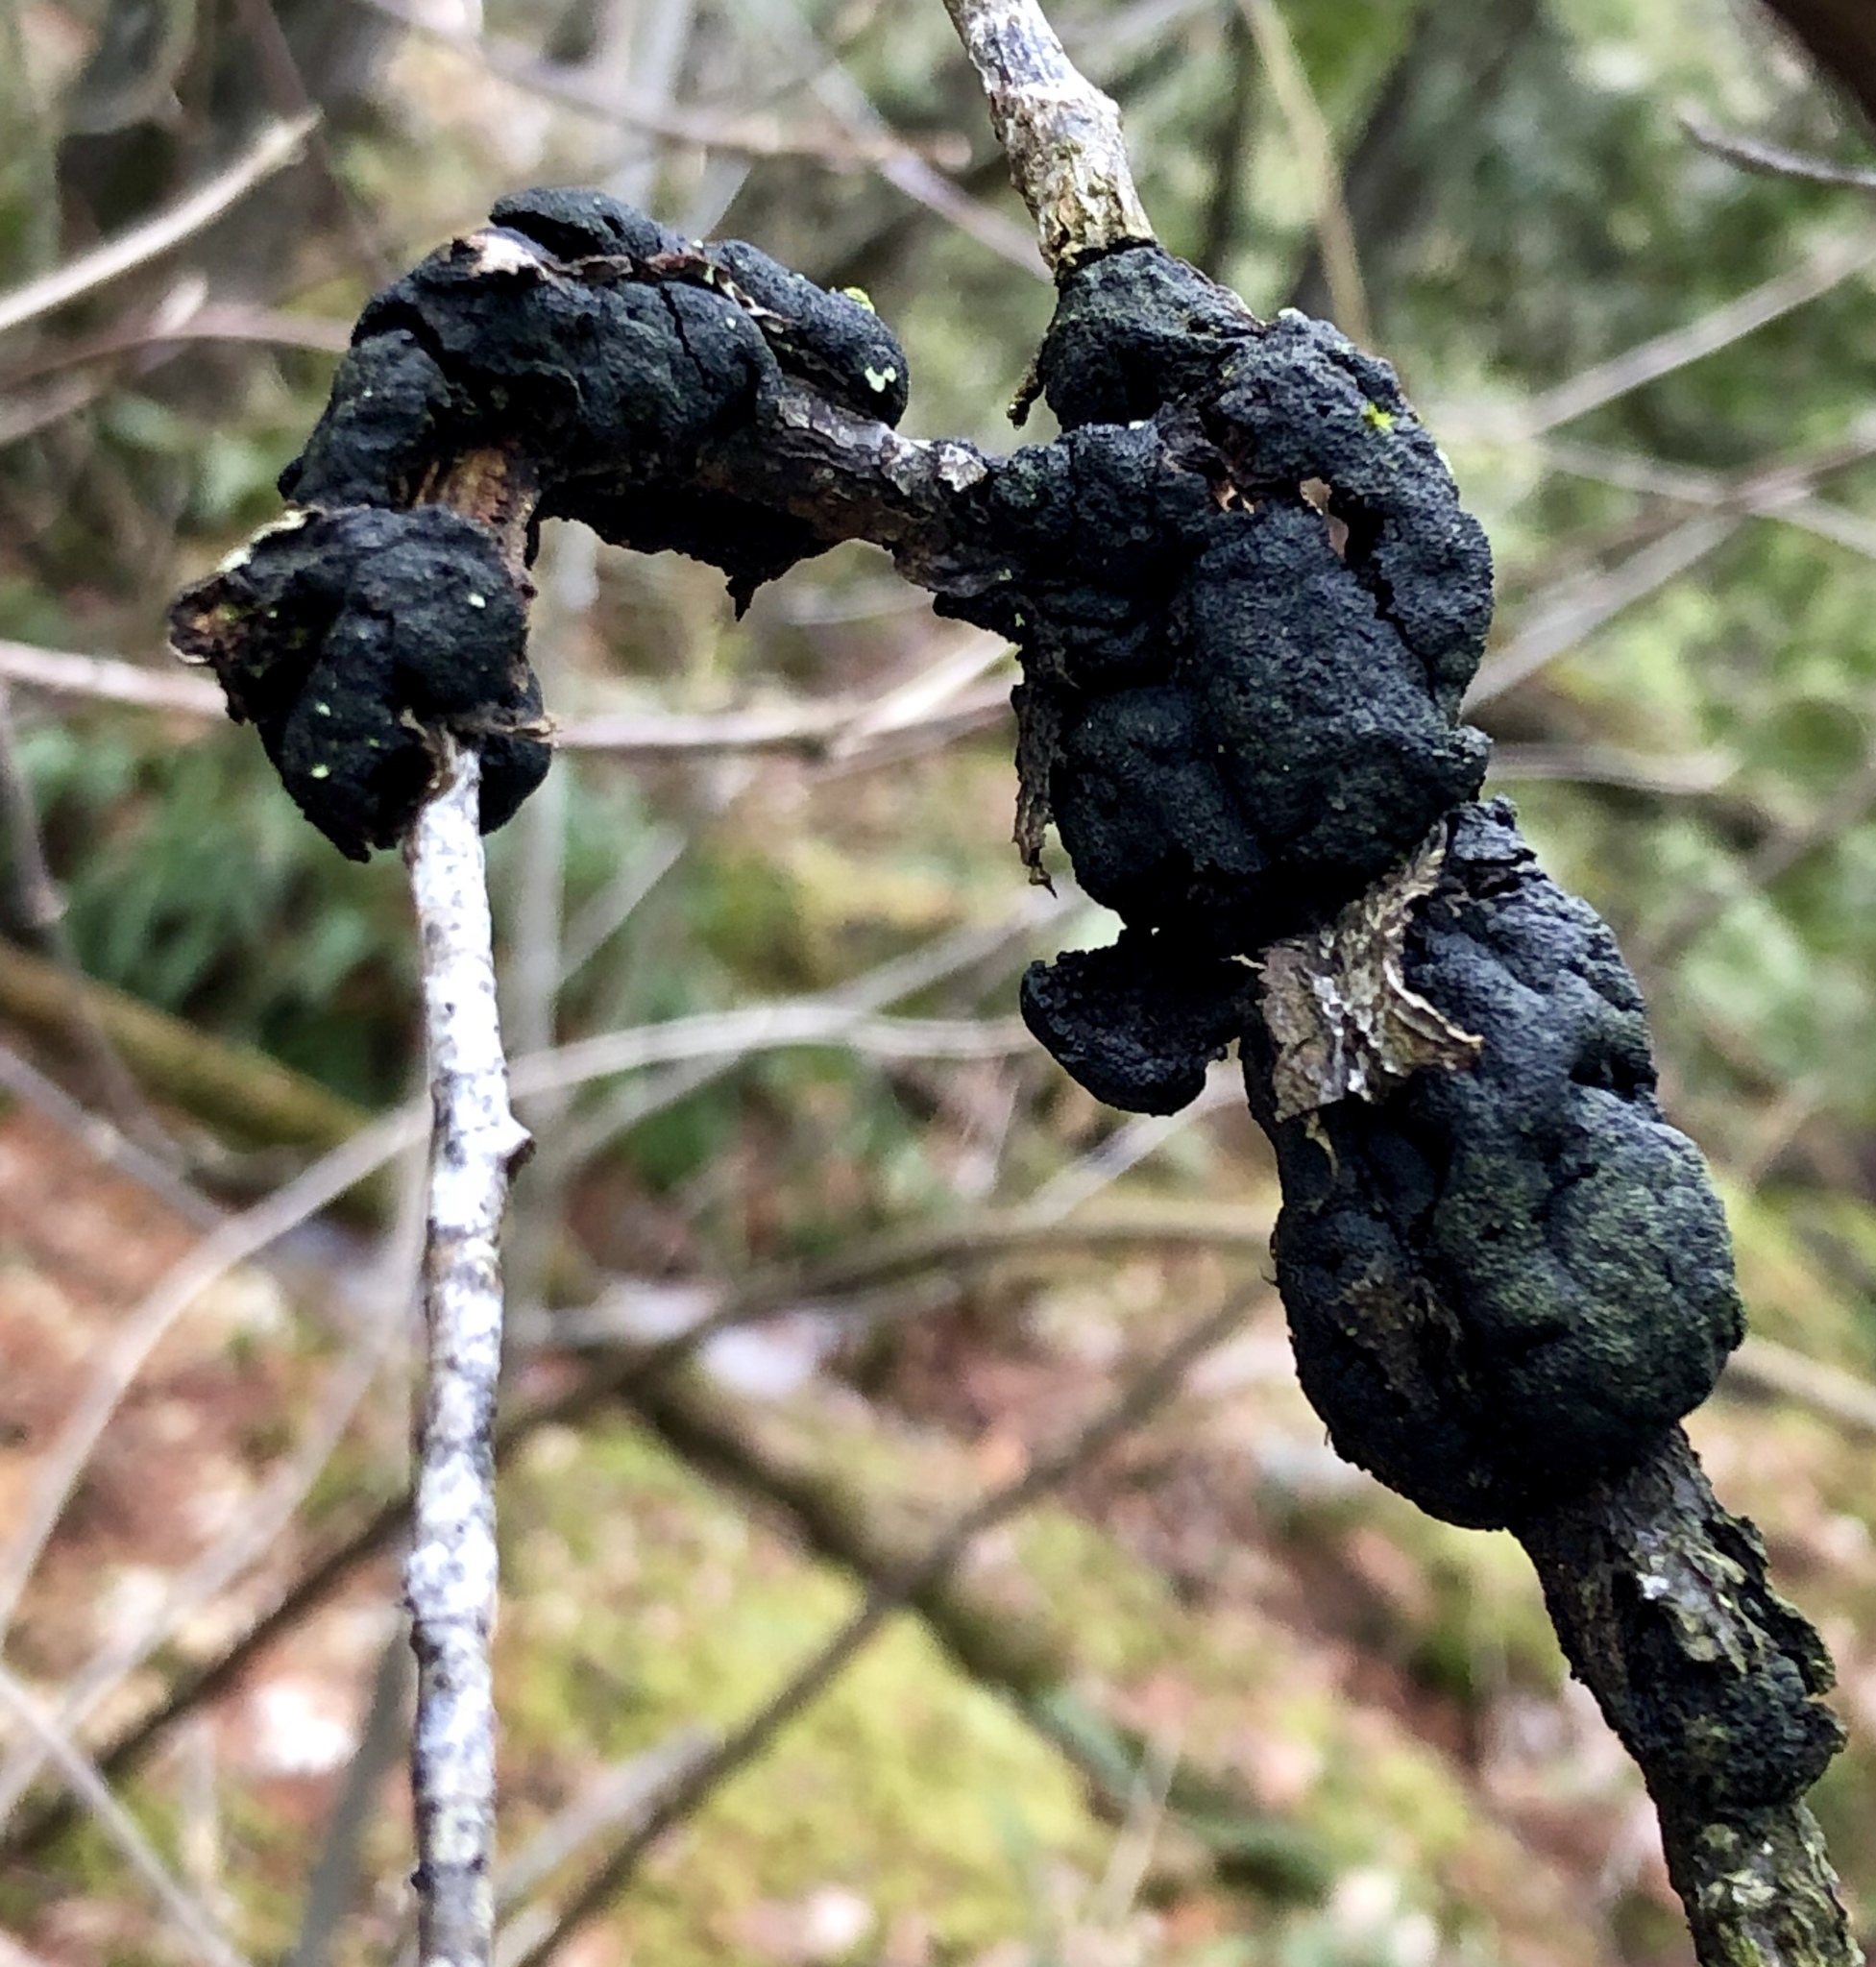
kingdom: Fungi
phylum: Ascomycota
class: Dothideomycetes
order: Venturiales
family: Venturiaceae
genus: Apiosporina
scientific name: Apiosporina morbosa
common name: Black knot
